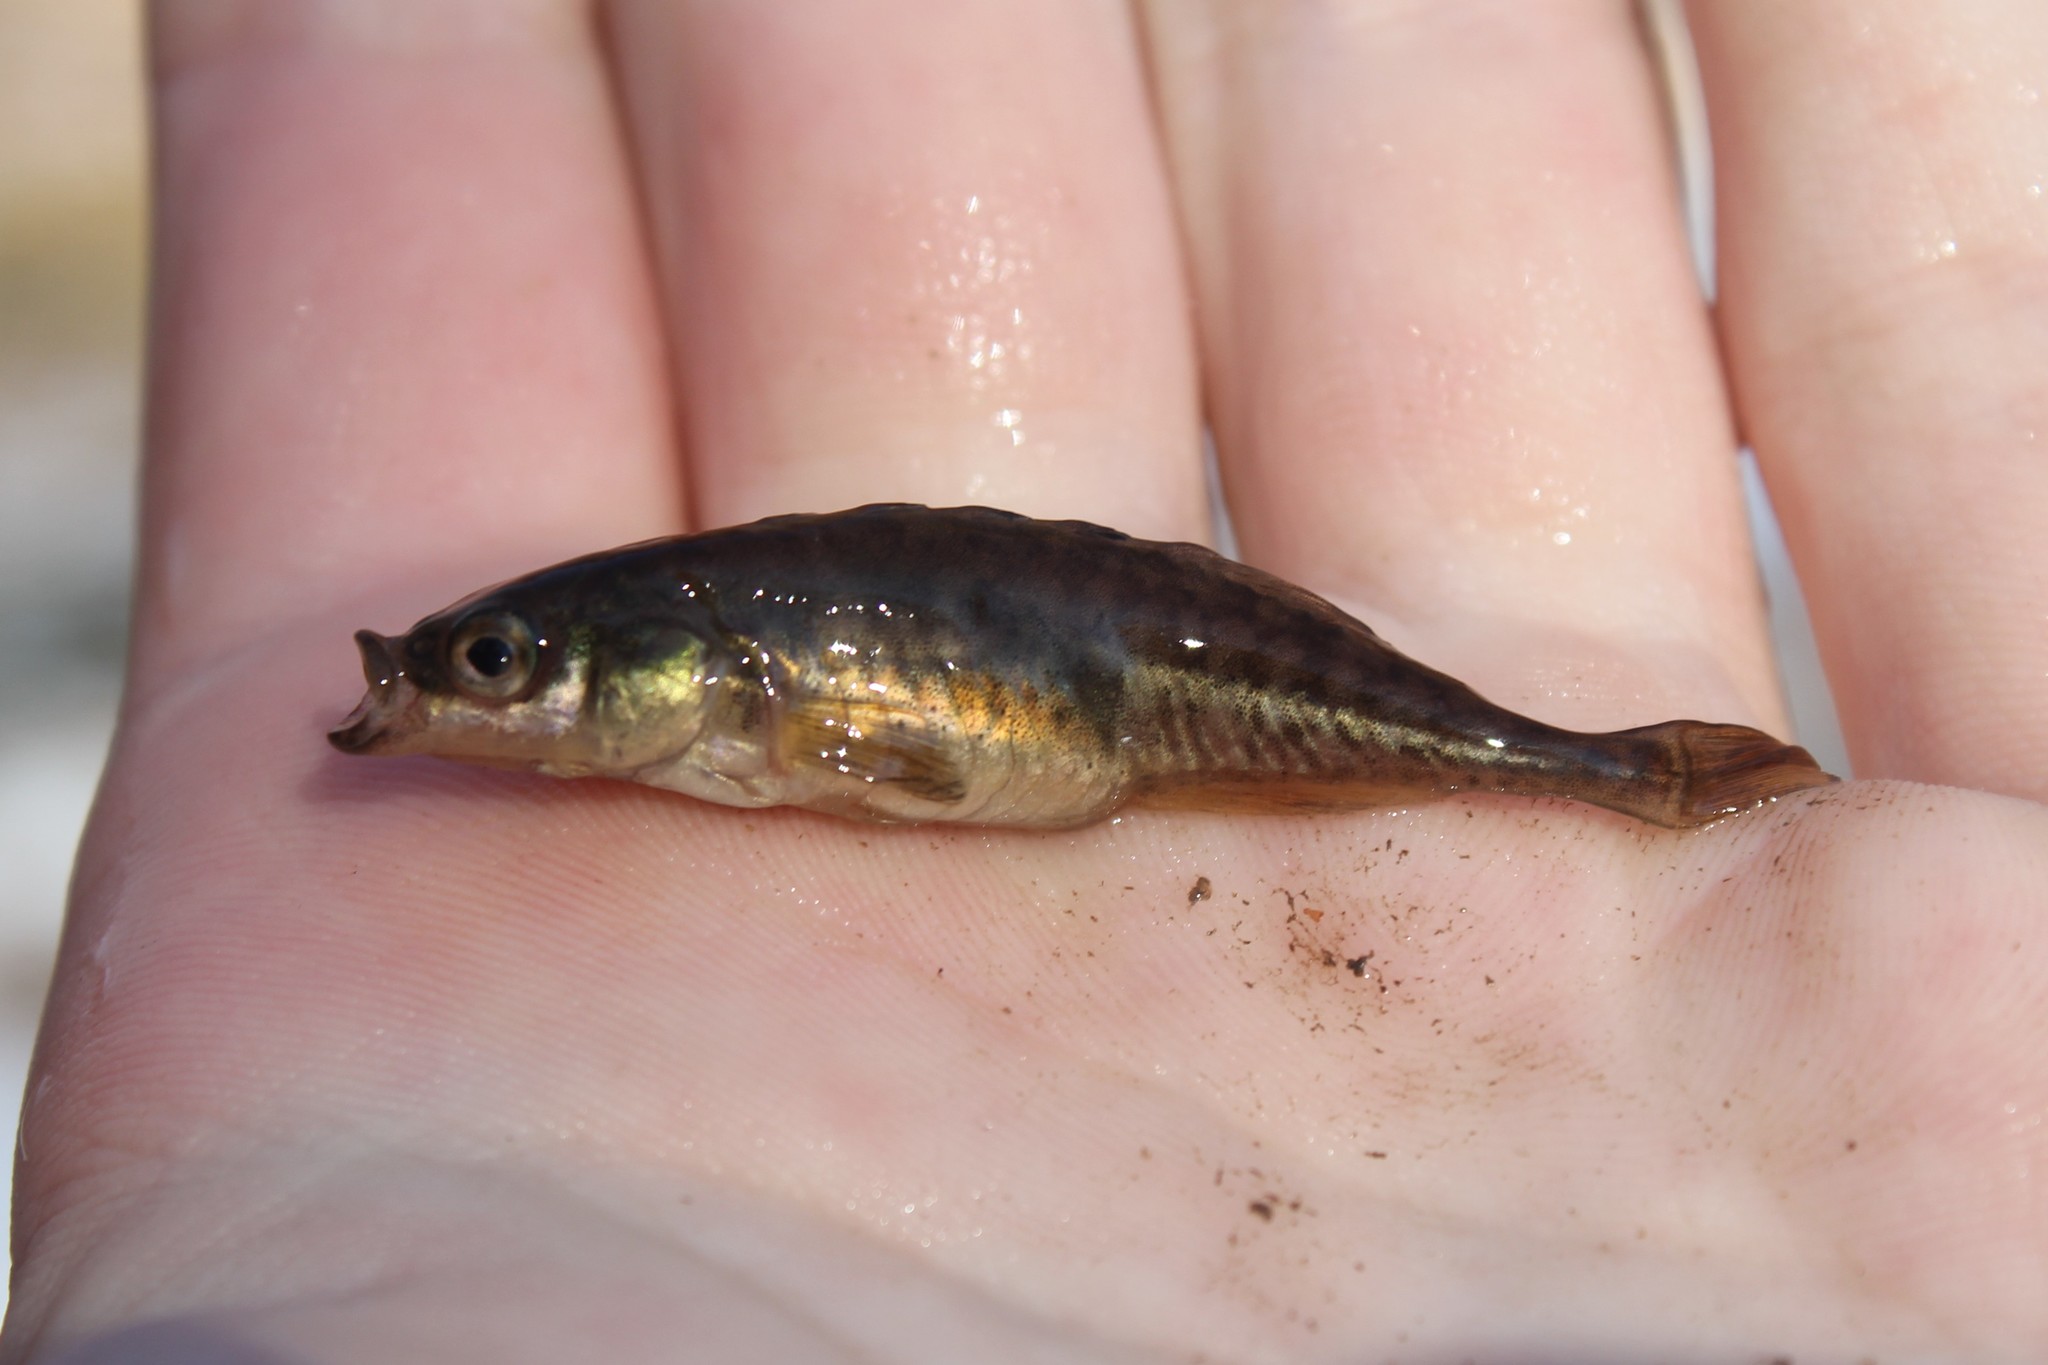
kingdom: Animalia
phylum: Chordata
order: Gasterosteiformes
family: Gasterosteidae
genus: Culaea
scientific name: Culaea inconstans
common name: Brook stickleback
